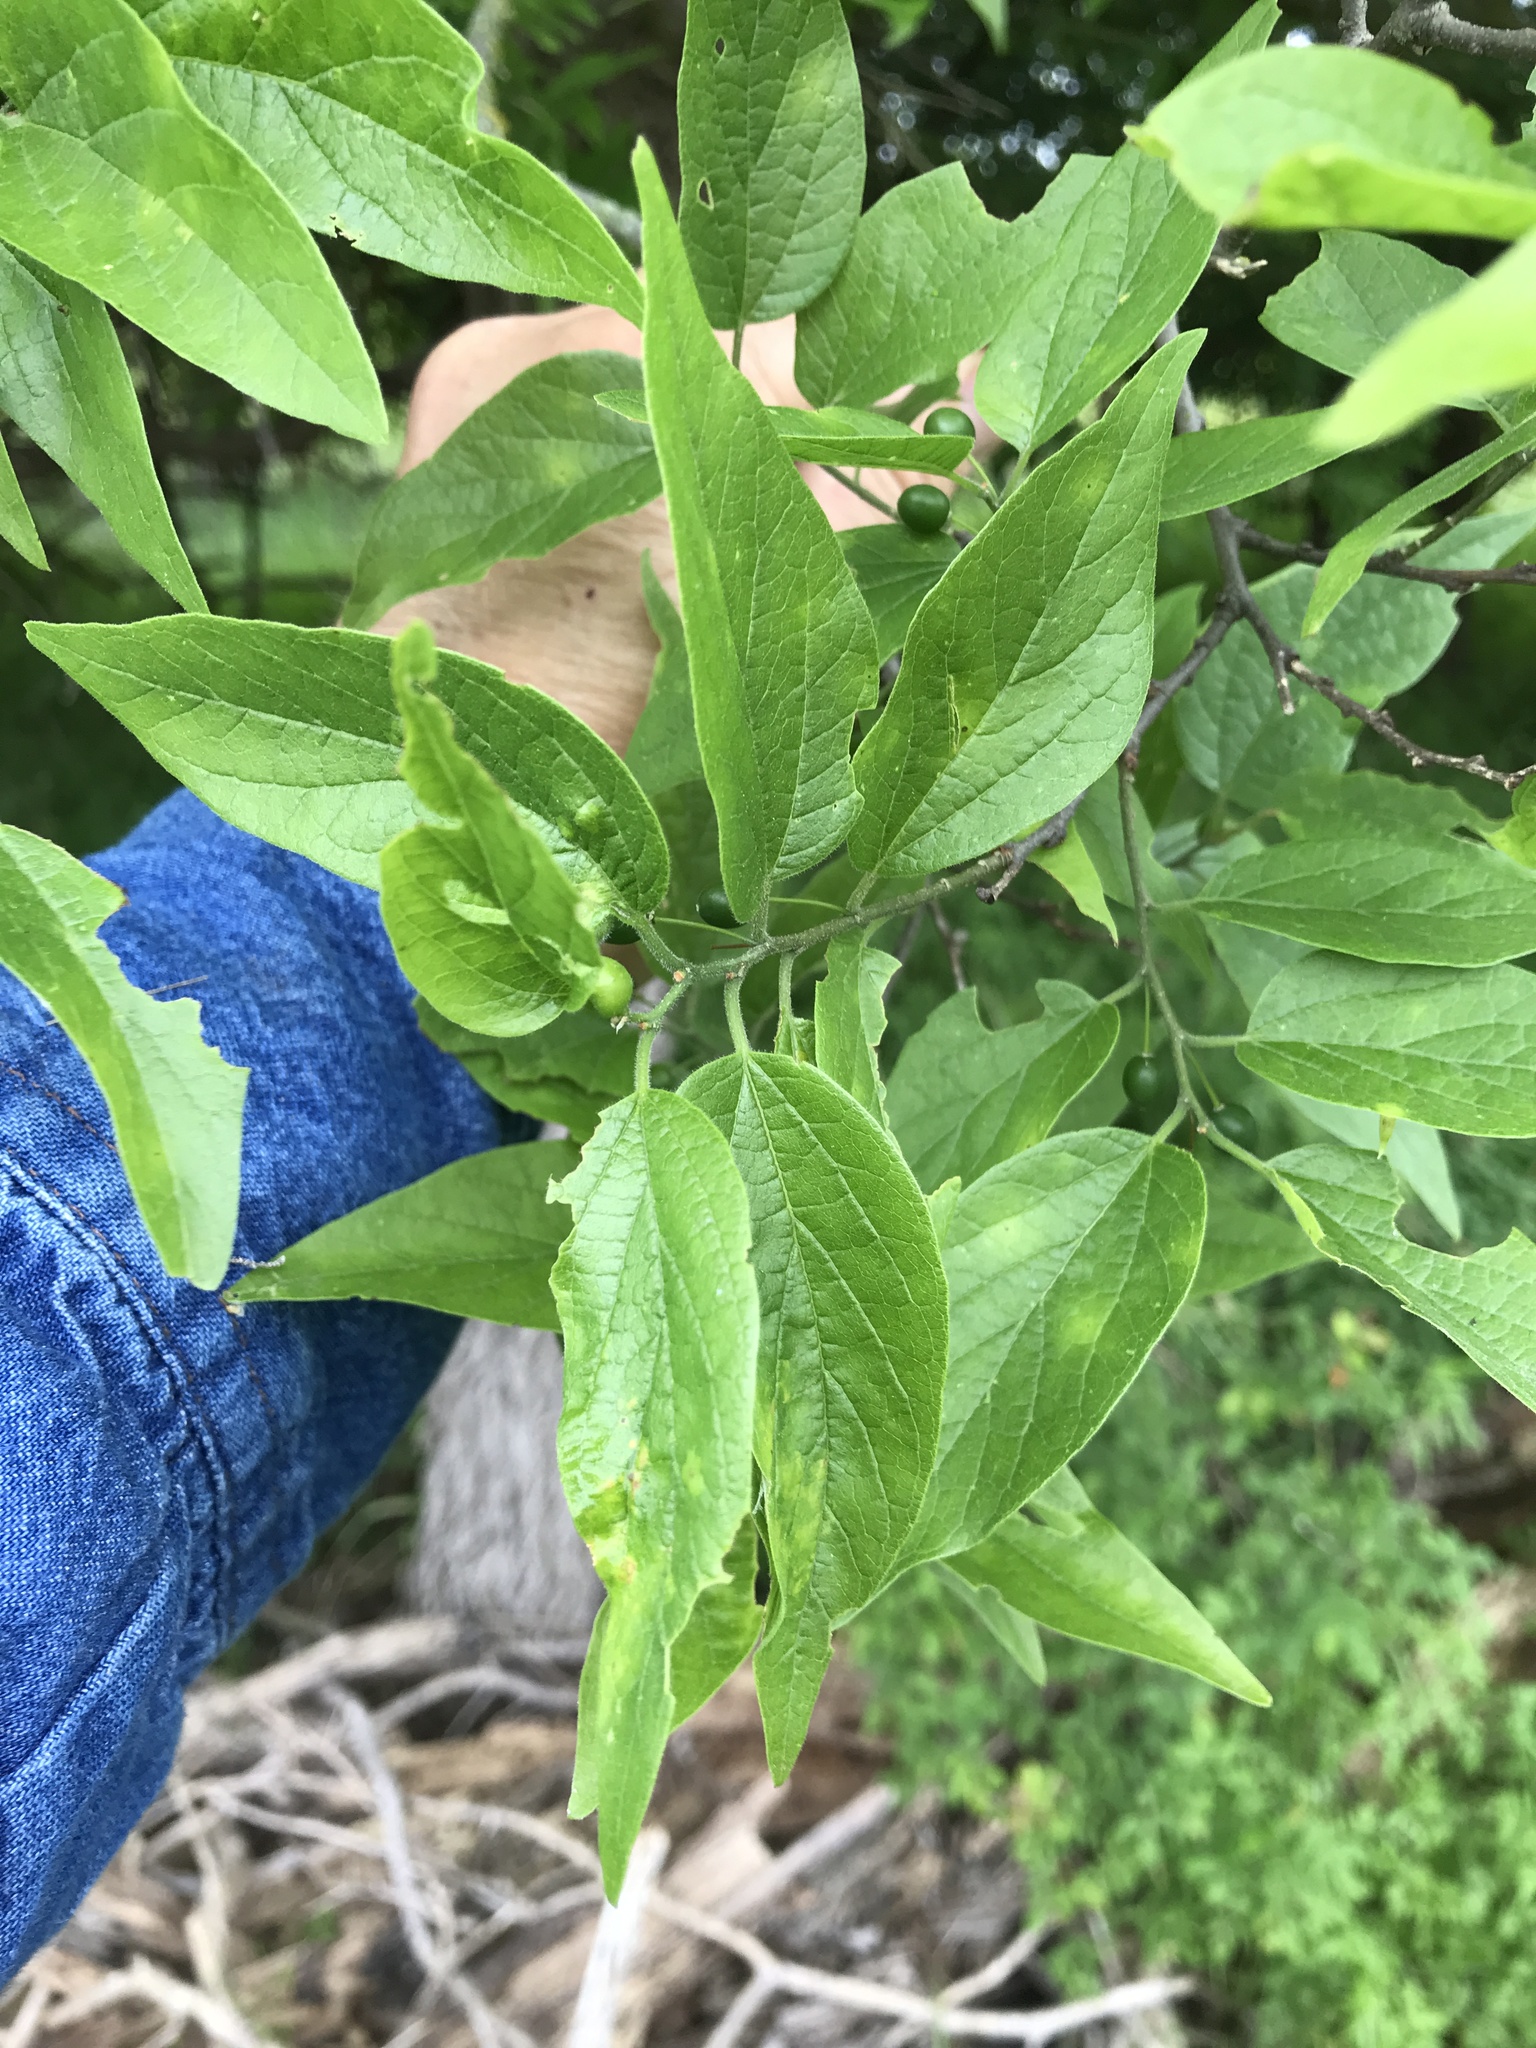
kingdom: Plantae
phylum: Tracheophyta
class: Magnoliopsida
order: Rosales
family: Cannabaceae
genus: Celtis
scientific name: Celtis laevigata
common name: Sugarberry
